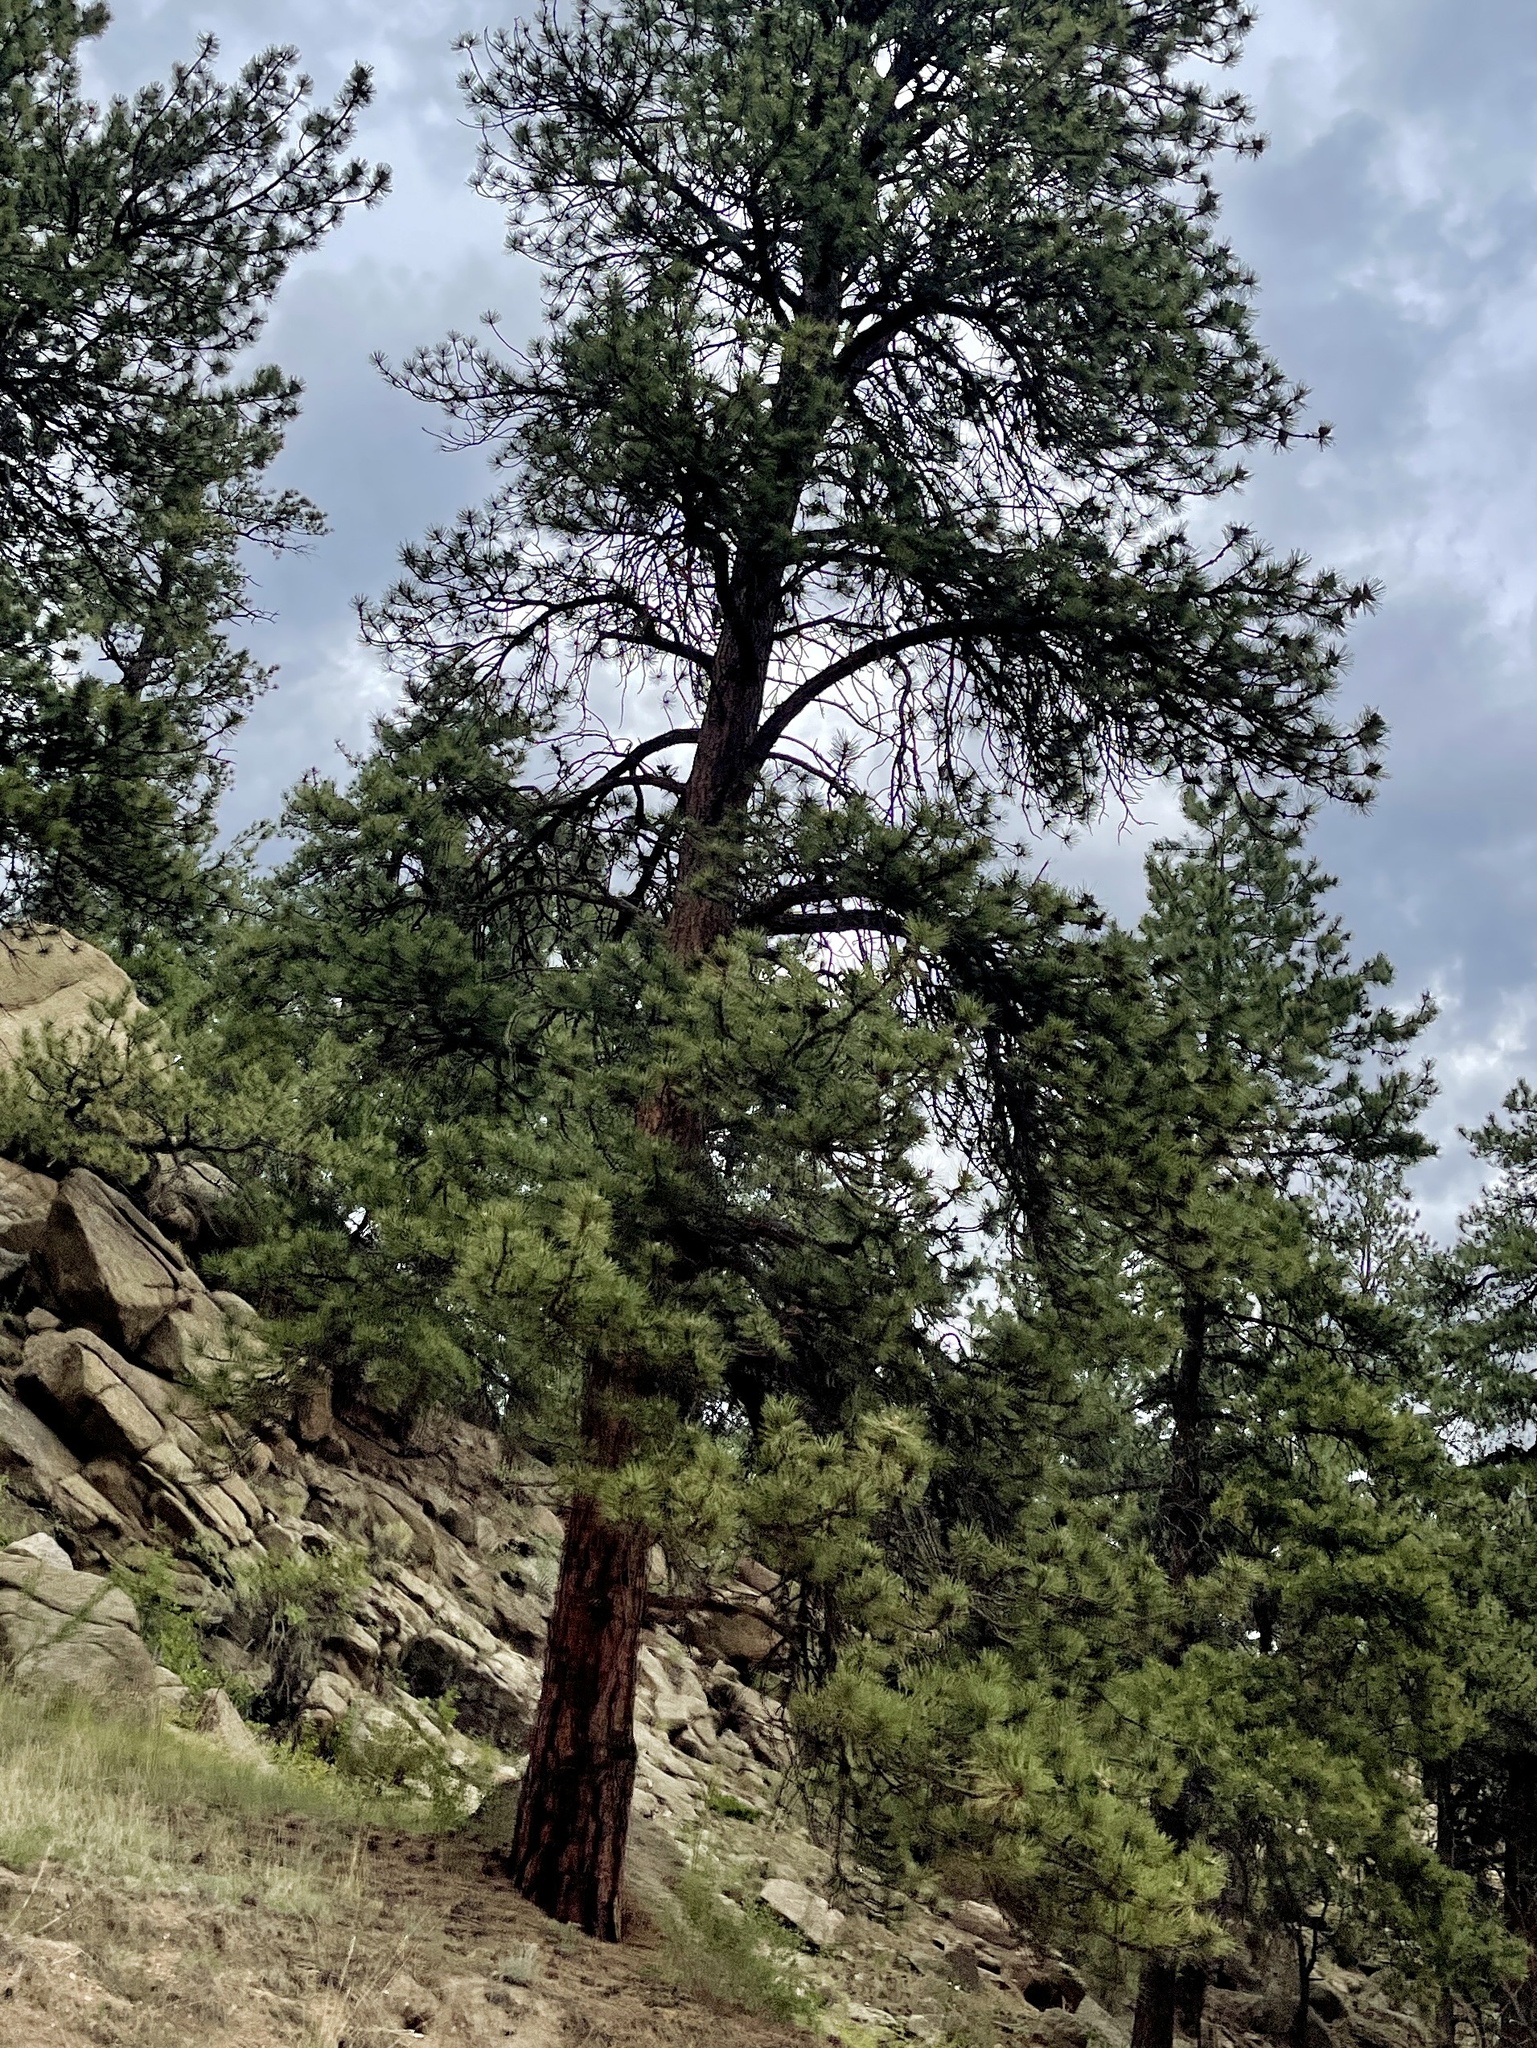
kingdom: Plantae
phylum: Tracheophyta
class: Pinopsida
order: Pinales
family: Pinaceae
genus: Pinus
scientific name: Pinus ponderosa
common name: Western yellow-pine
